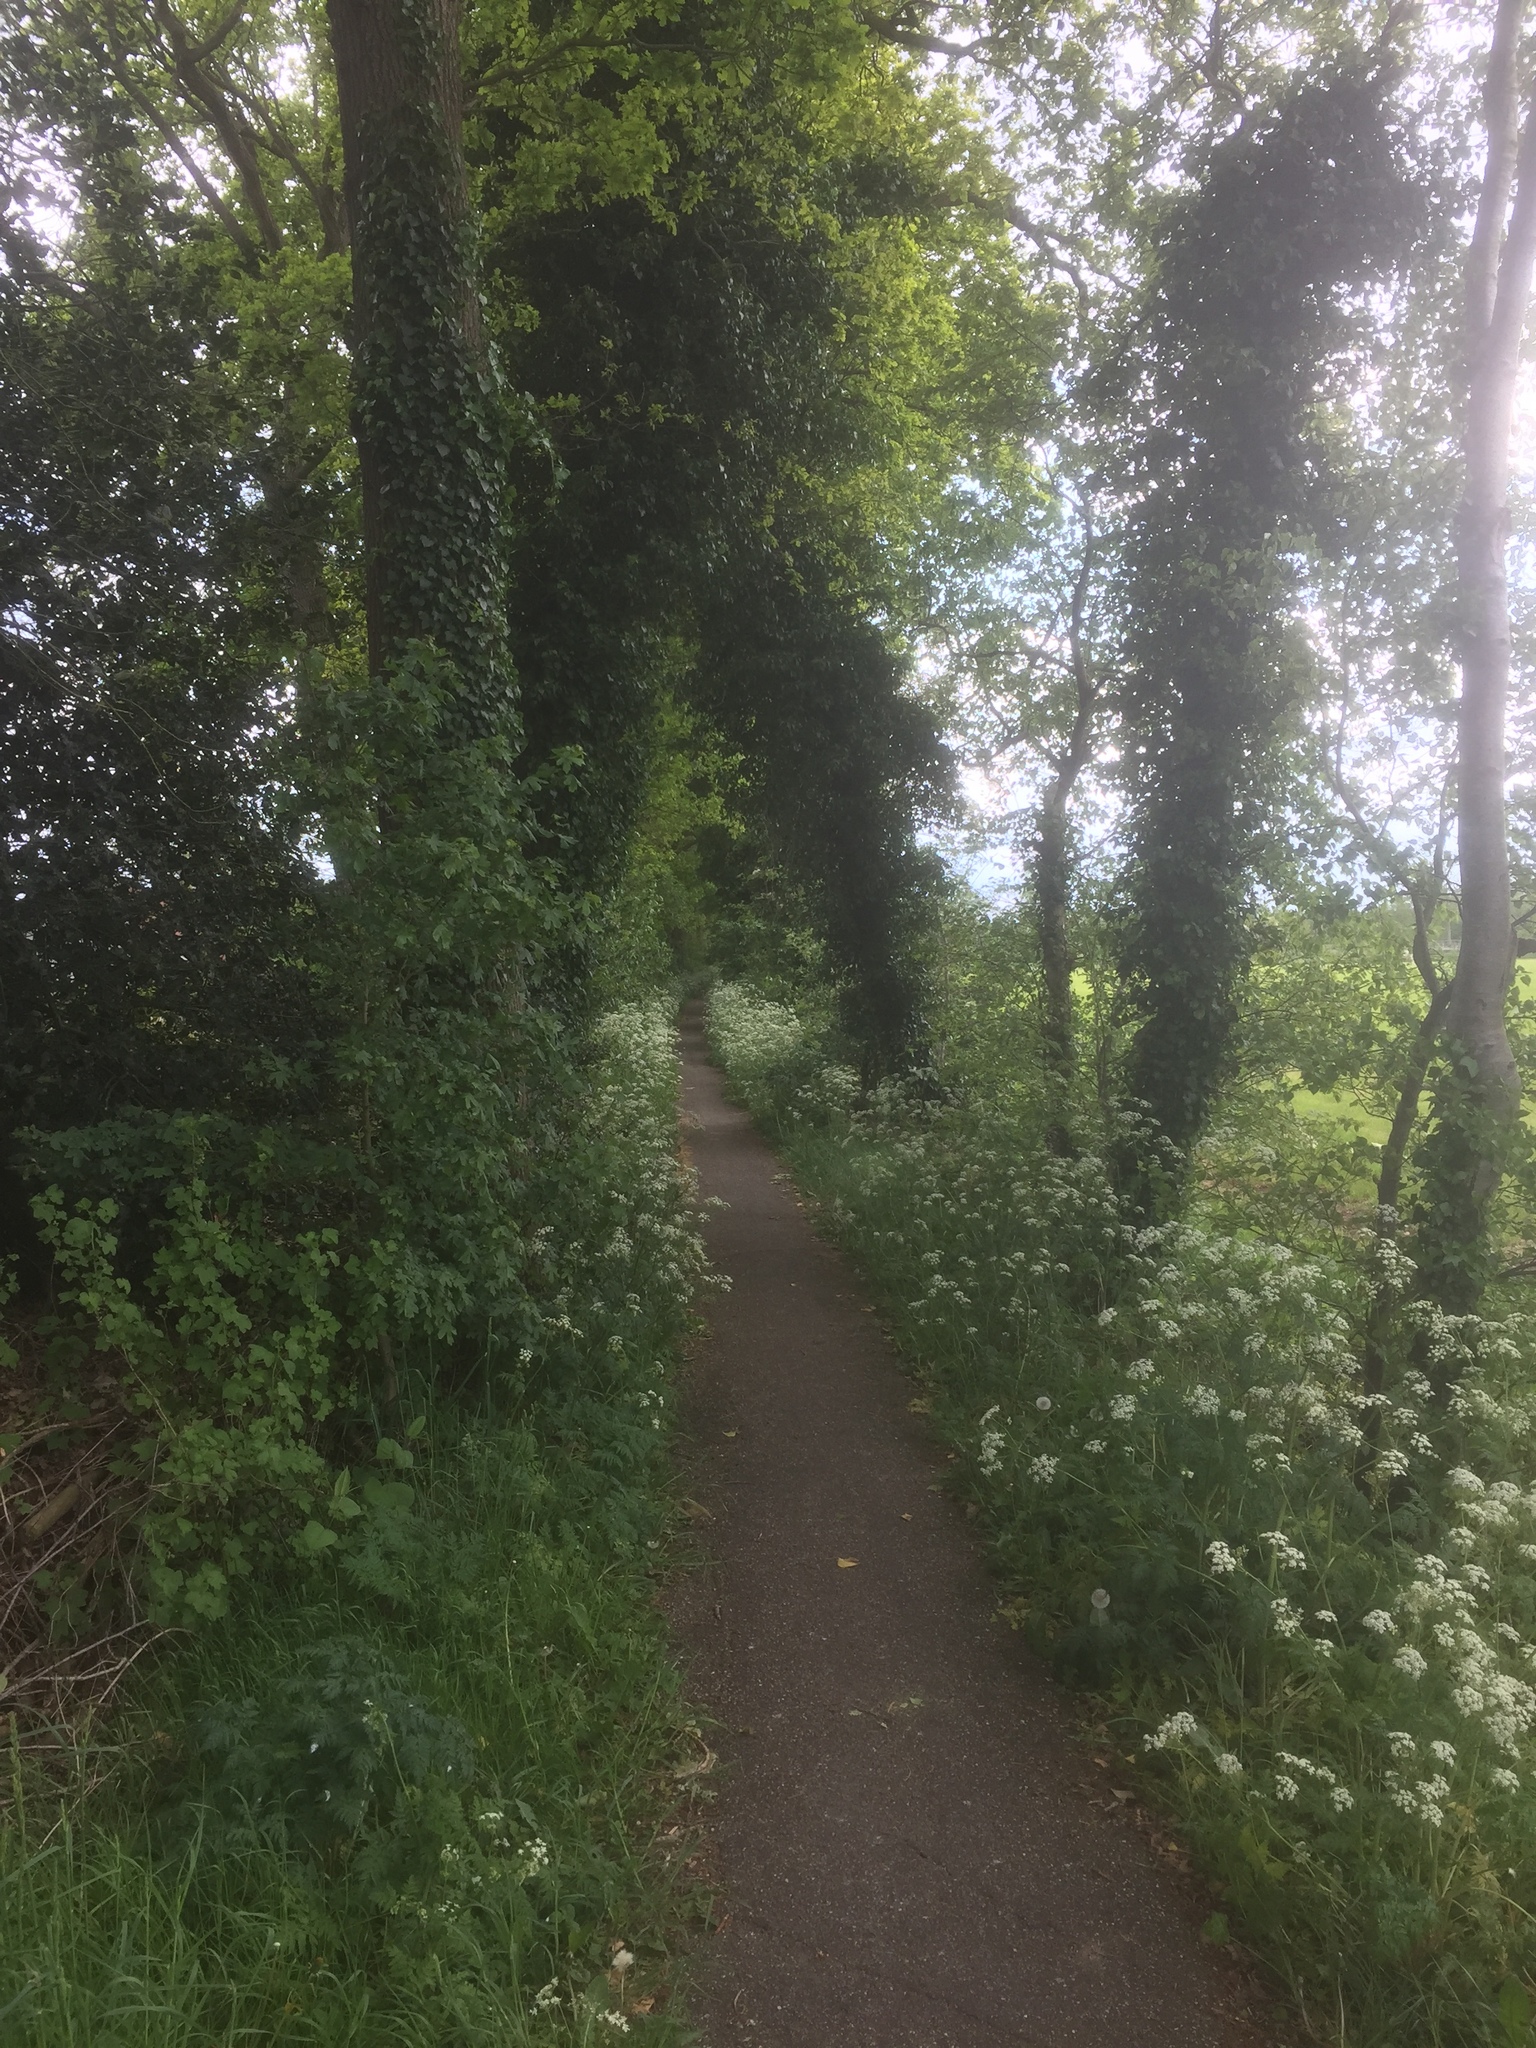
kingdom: Plantae
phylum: Tracheophyta
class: Magnoliopsida
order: Apiales
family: Araliaceae
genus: Hedera
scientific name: Hedera helix
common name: Ivy
